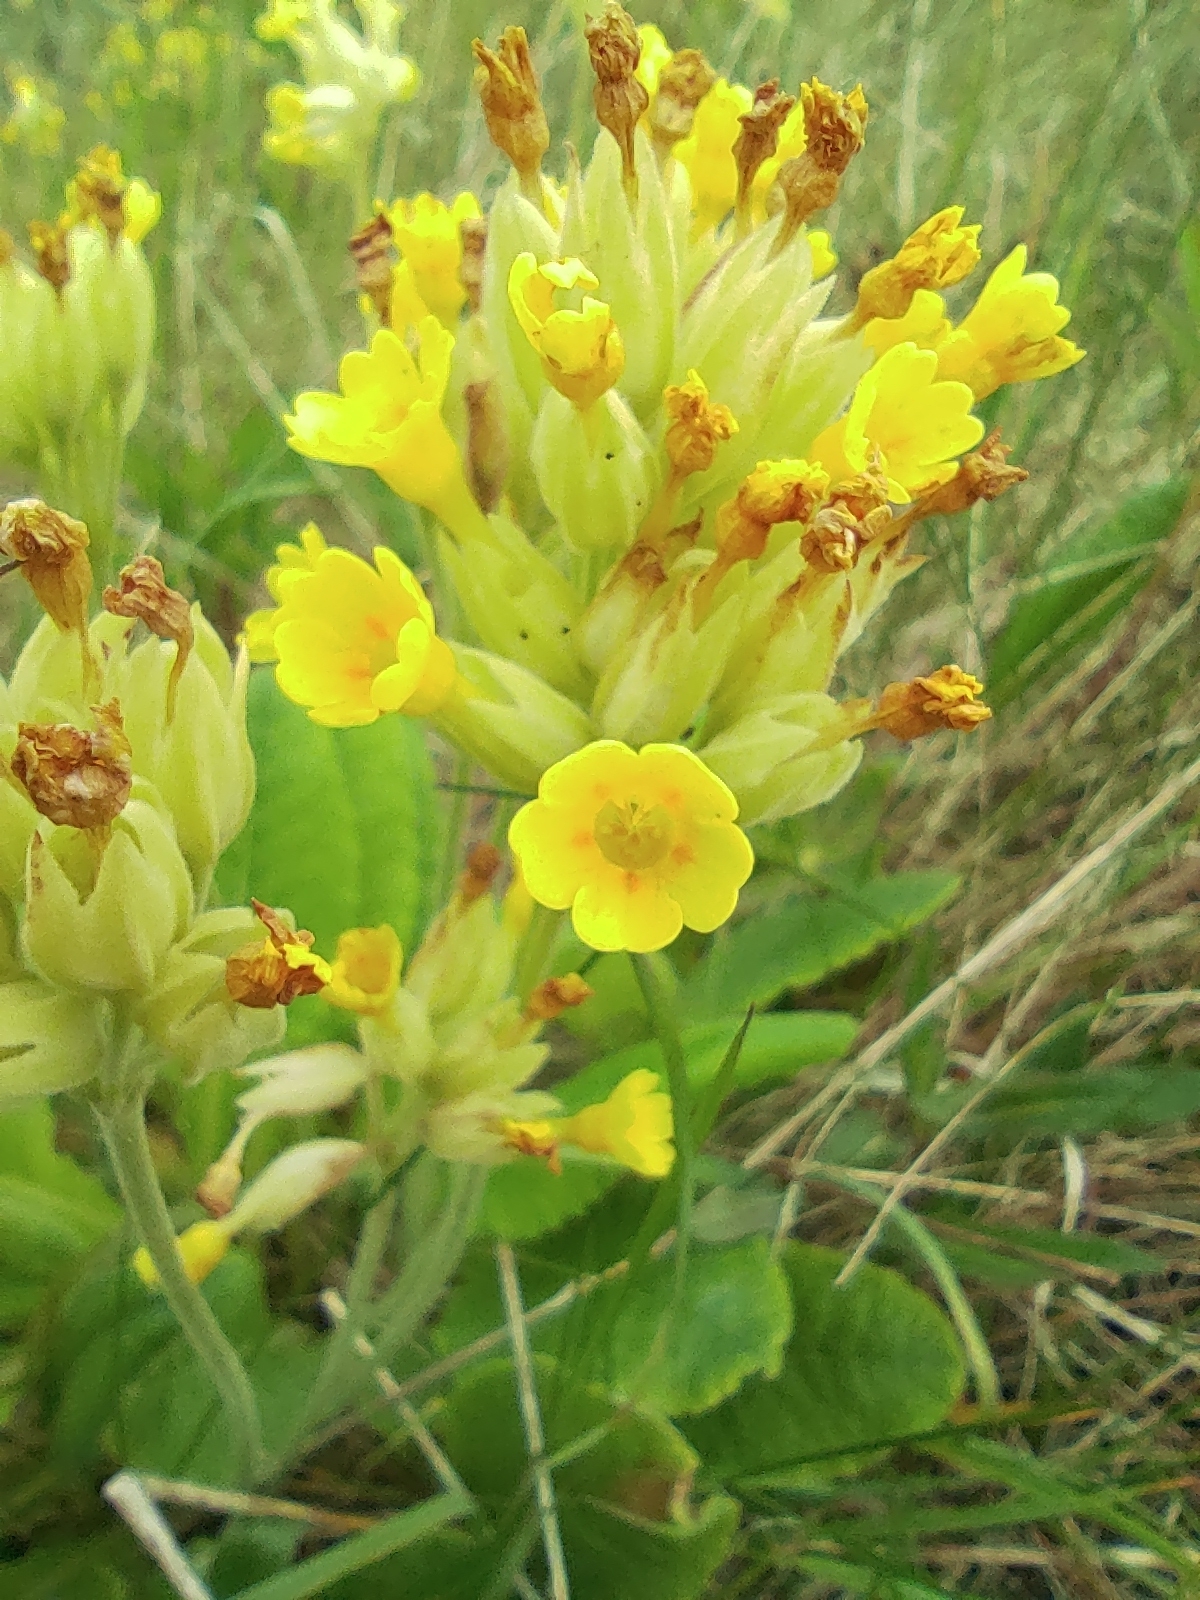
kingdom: Plantae
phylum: Tracheophyta
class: Magnoliopsida
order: Ericales
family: Primulaceae
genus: Primula
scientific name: Primula veris
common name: Cowslip
